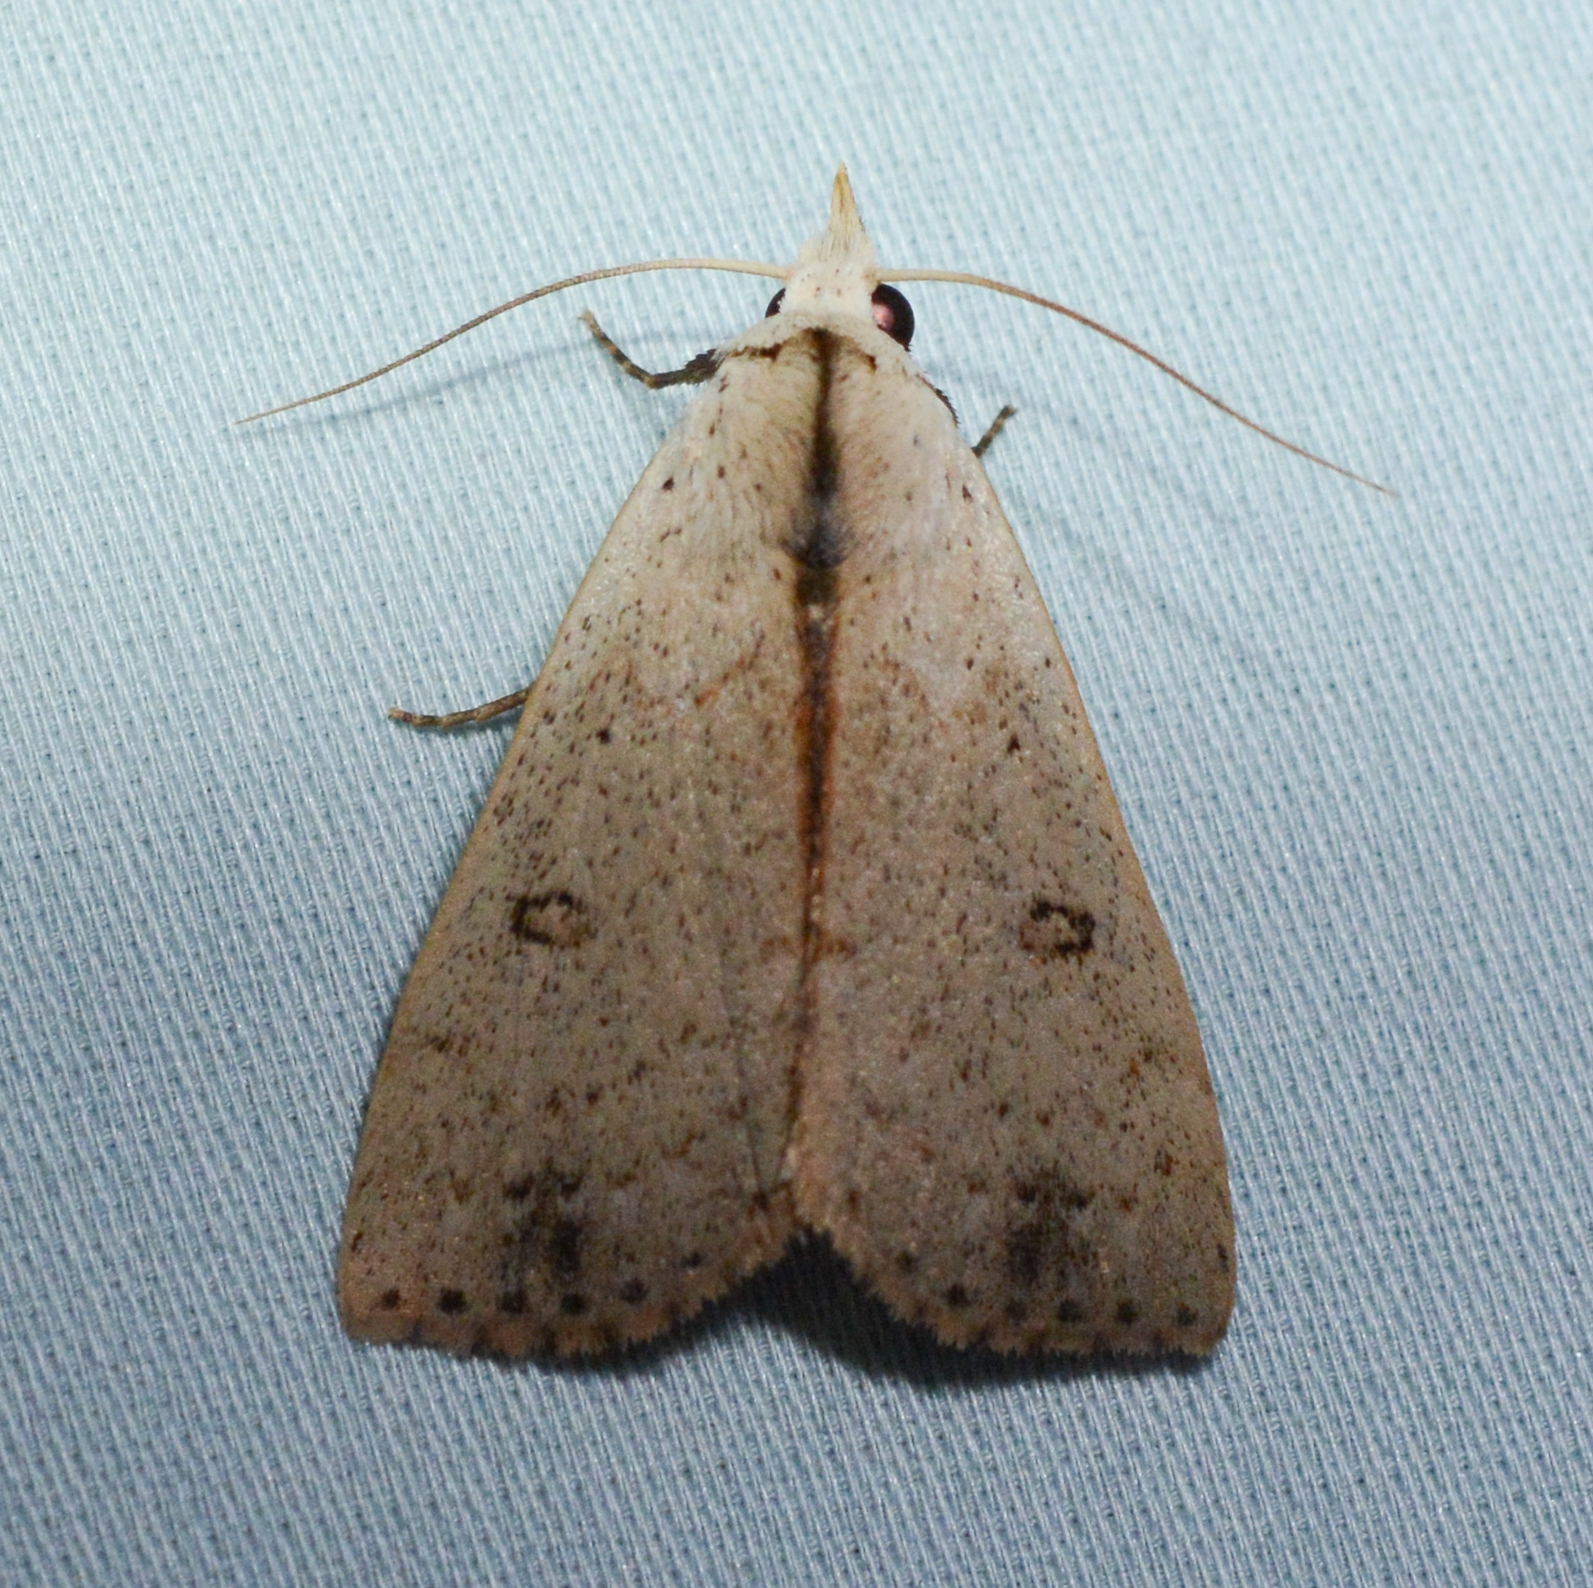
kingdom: Animalia
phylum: Arthropoda
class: Insecta
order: Lepidoptera
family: Erebidae
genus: Scolecocampa
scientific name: Scolecocampa liburna
